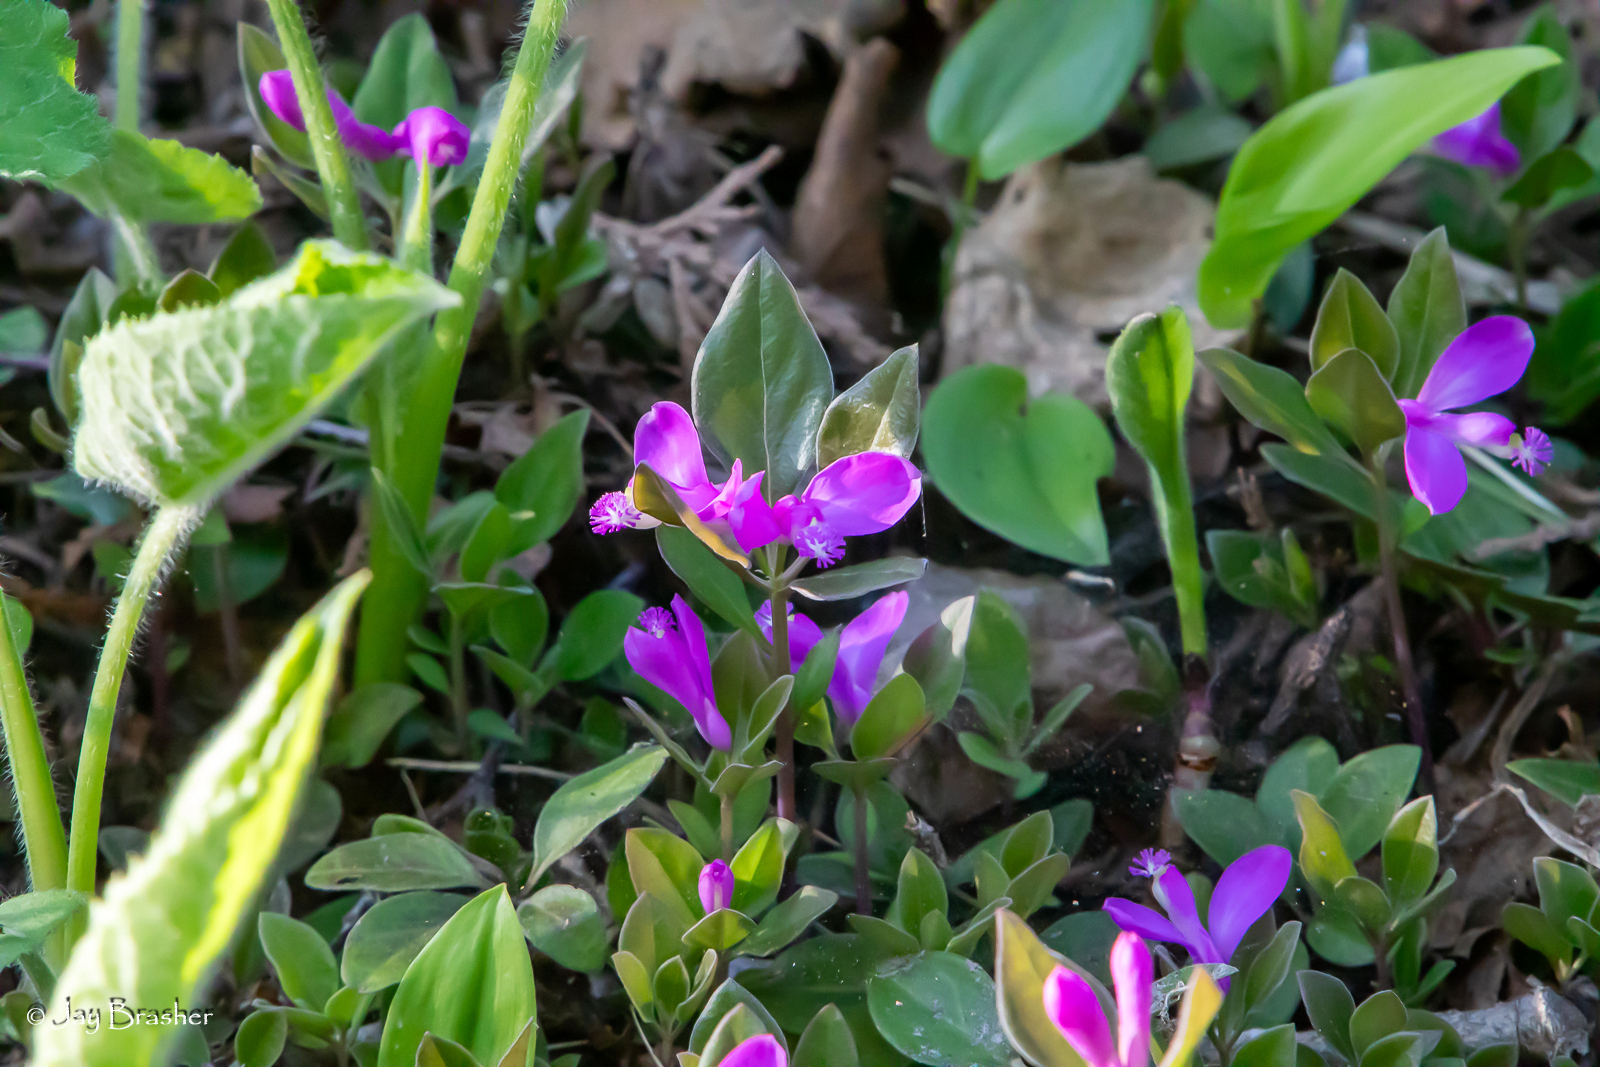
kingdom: Plantae
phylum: Tracheophyta
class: Magnoliopsida
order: Fabales
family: Polygalaceae
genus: Polygaloides
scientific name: Polygaloides paucifolia
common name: Bird-on-the-wing
